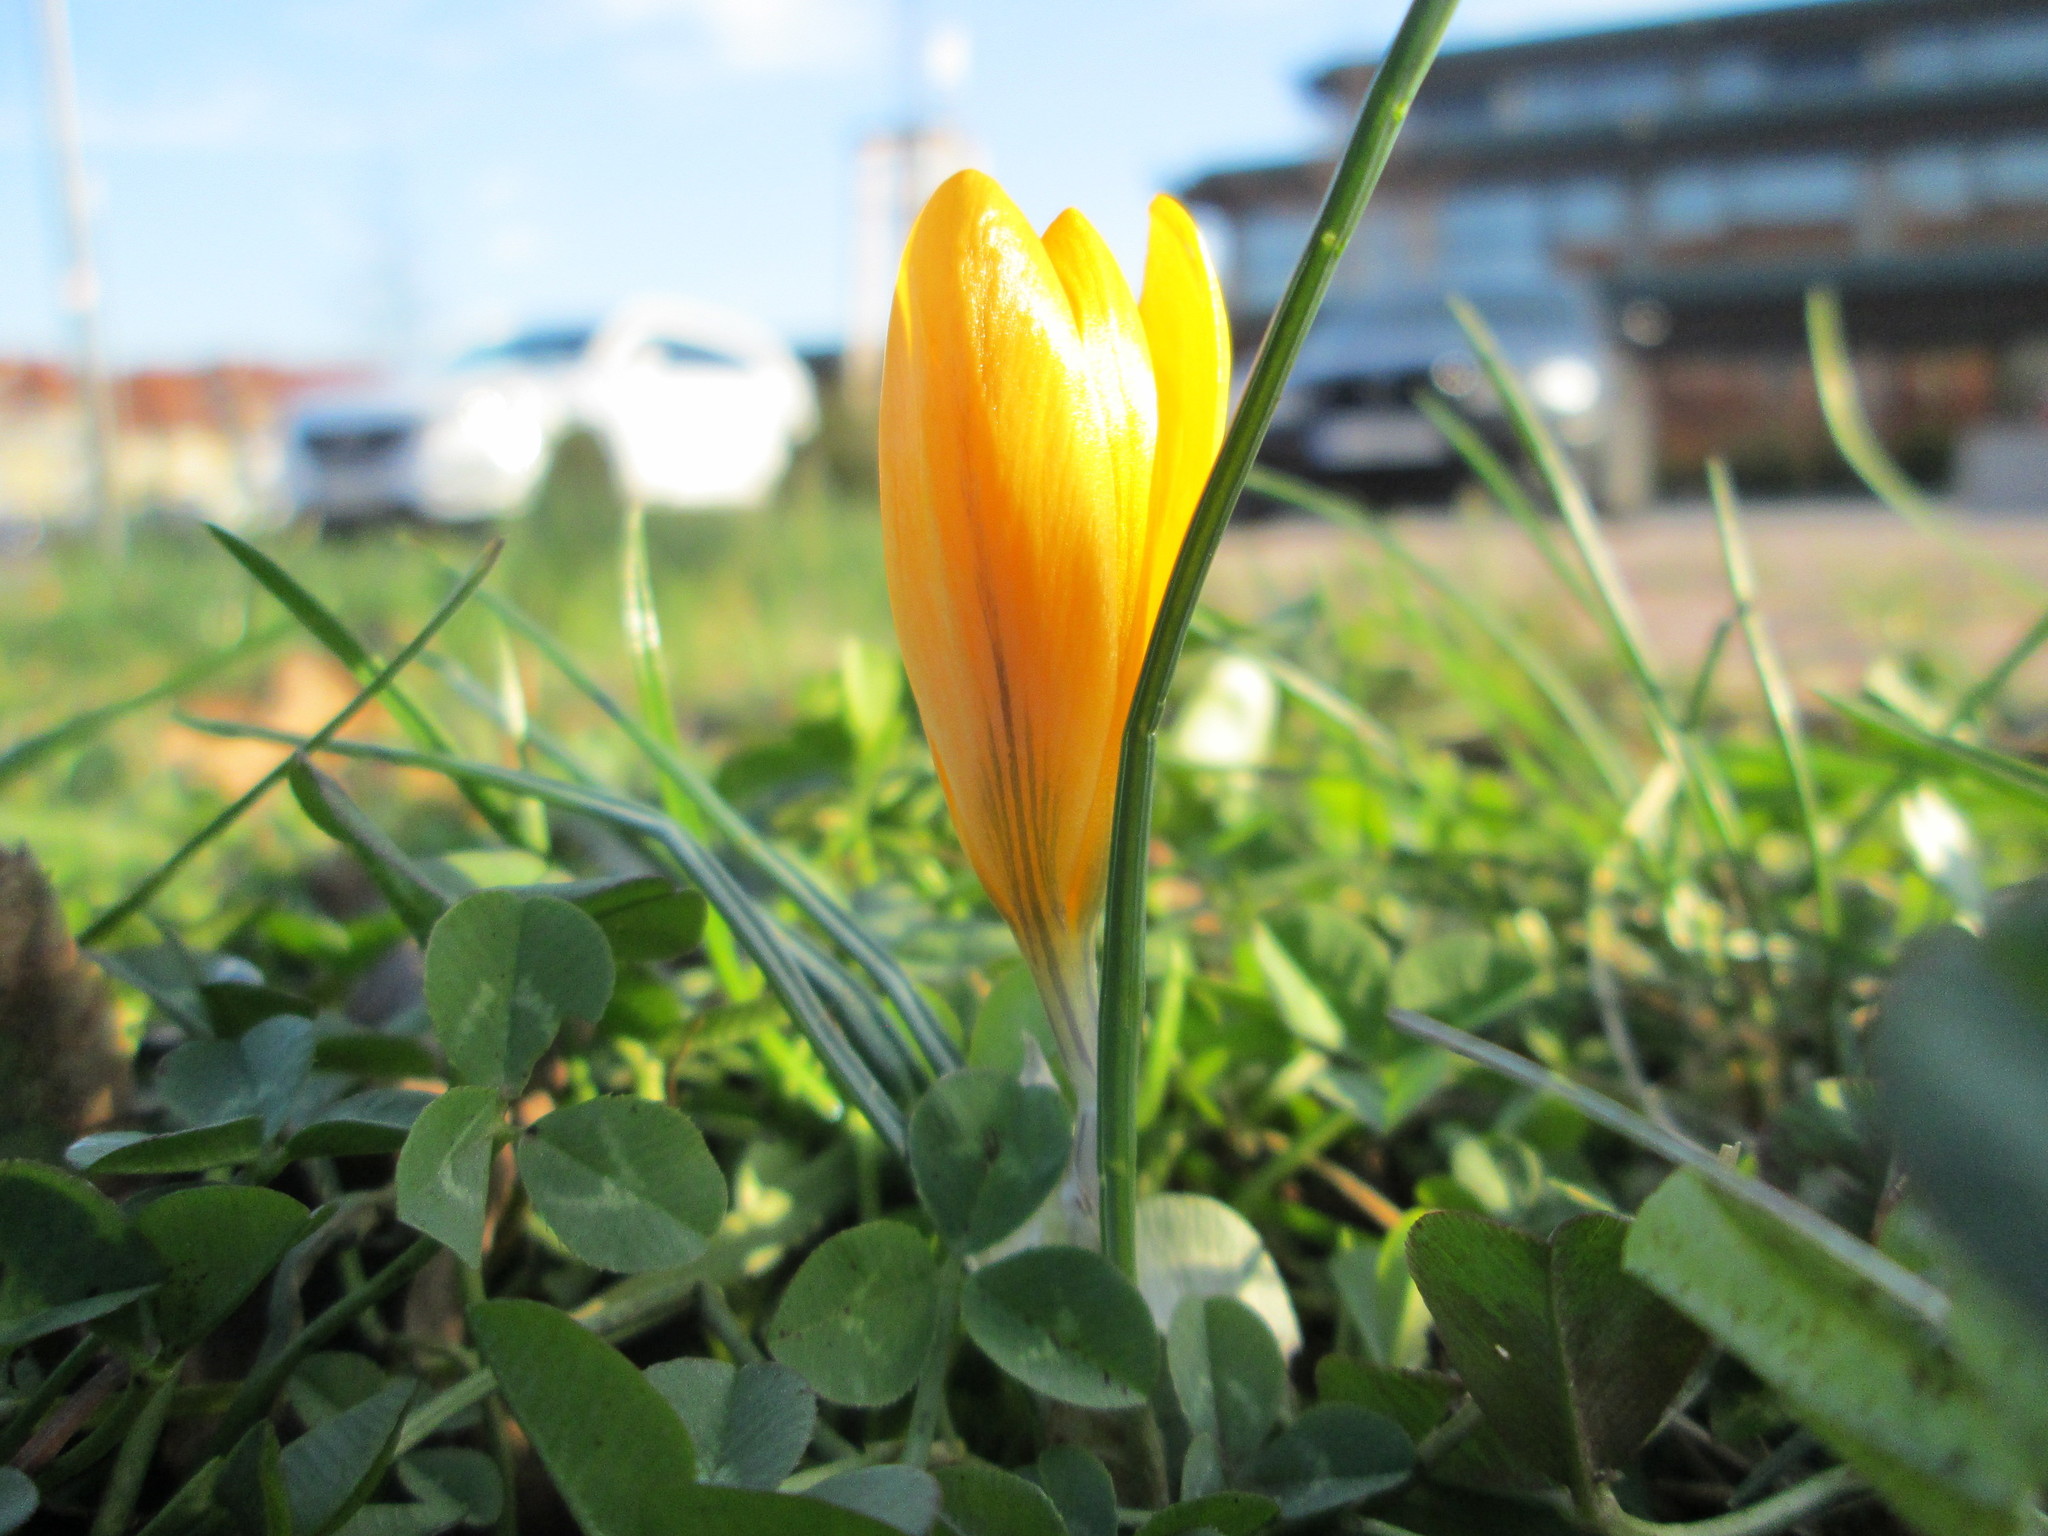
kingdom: Plantae
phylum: Tracheophyta
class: Liliopsida
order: Asparagales
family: Iridaceae
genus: Crocus
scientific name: Crocus luteus
